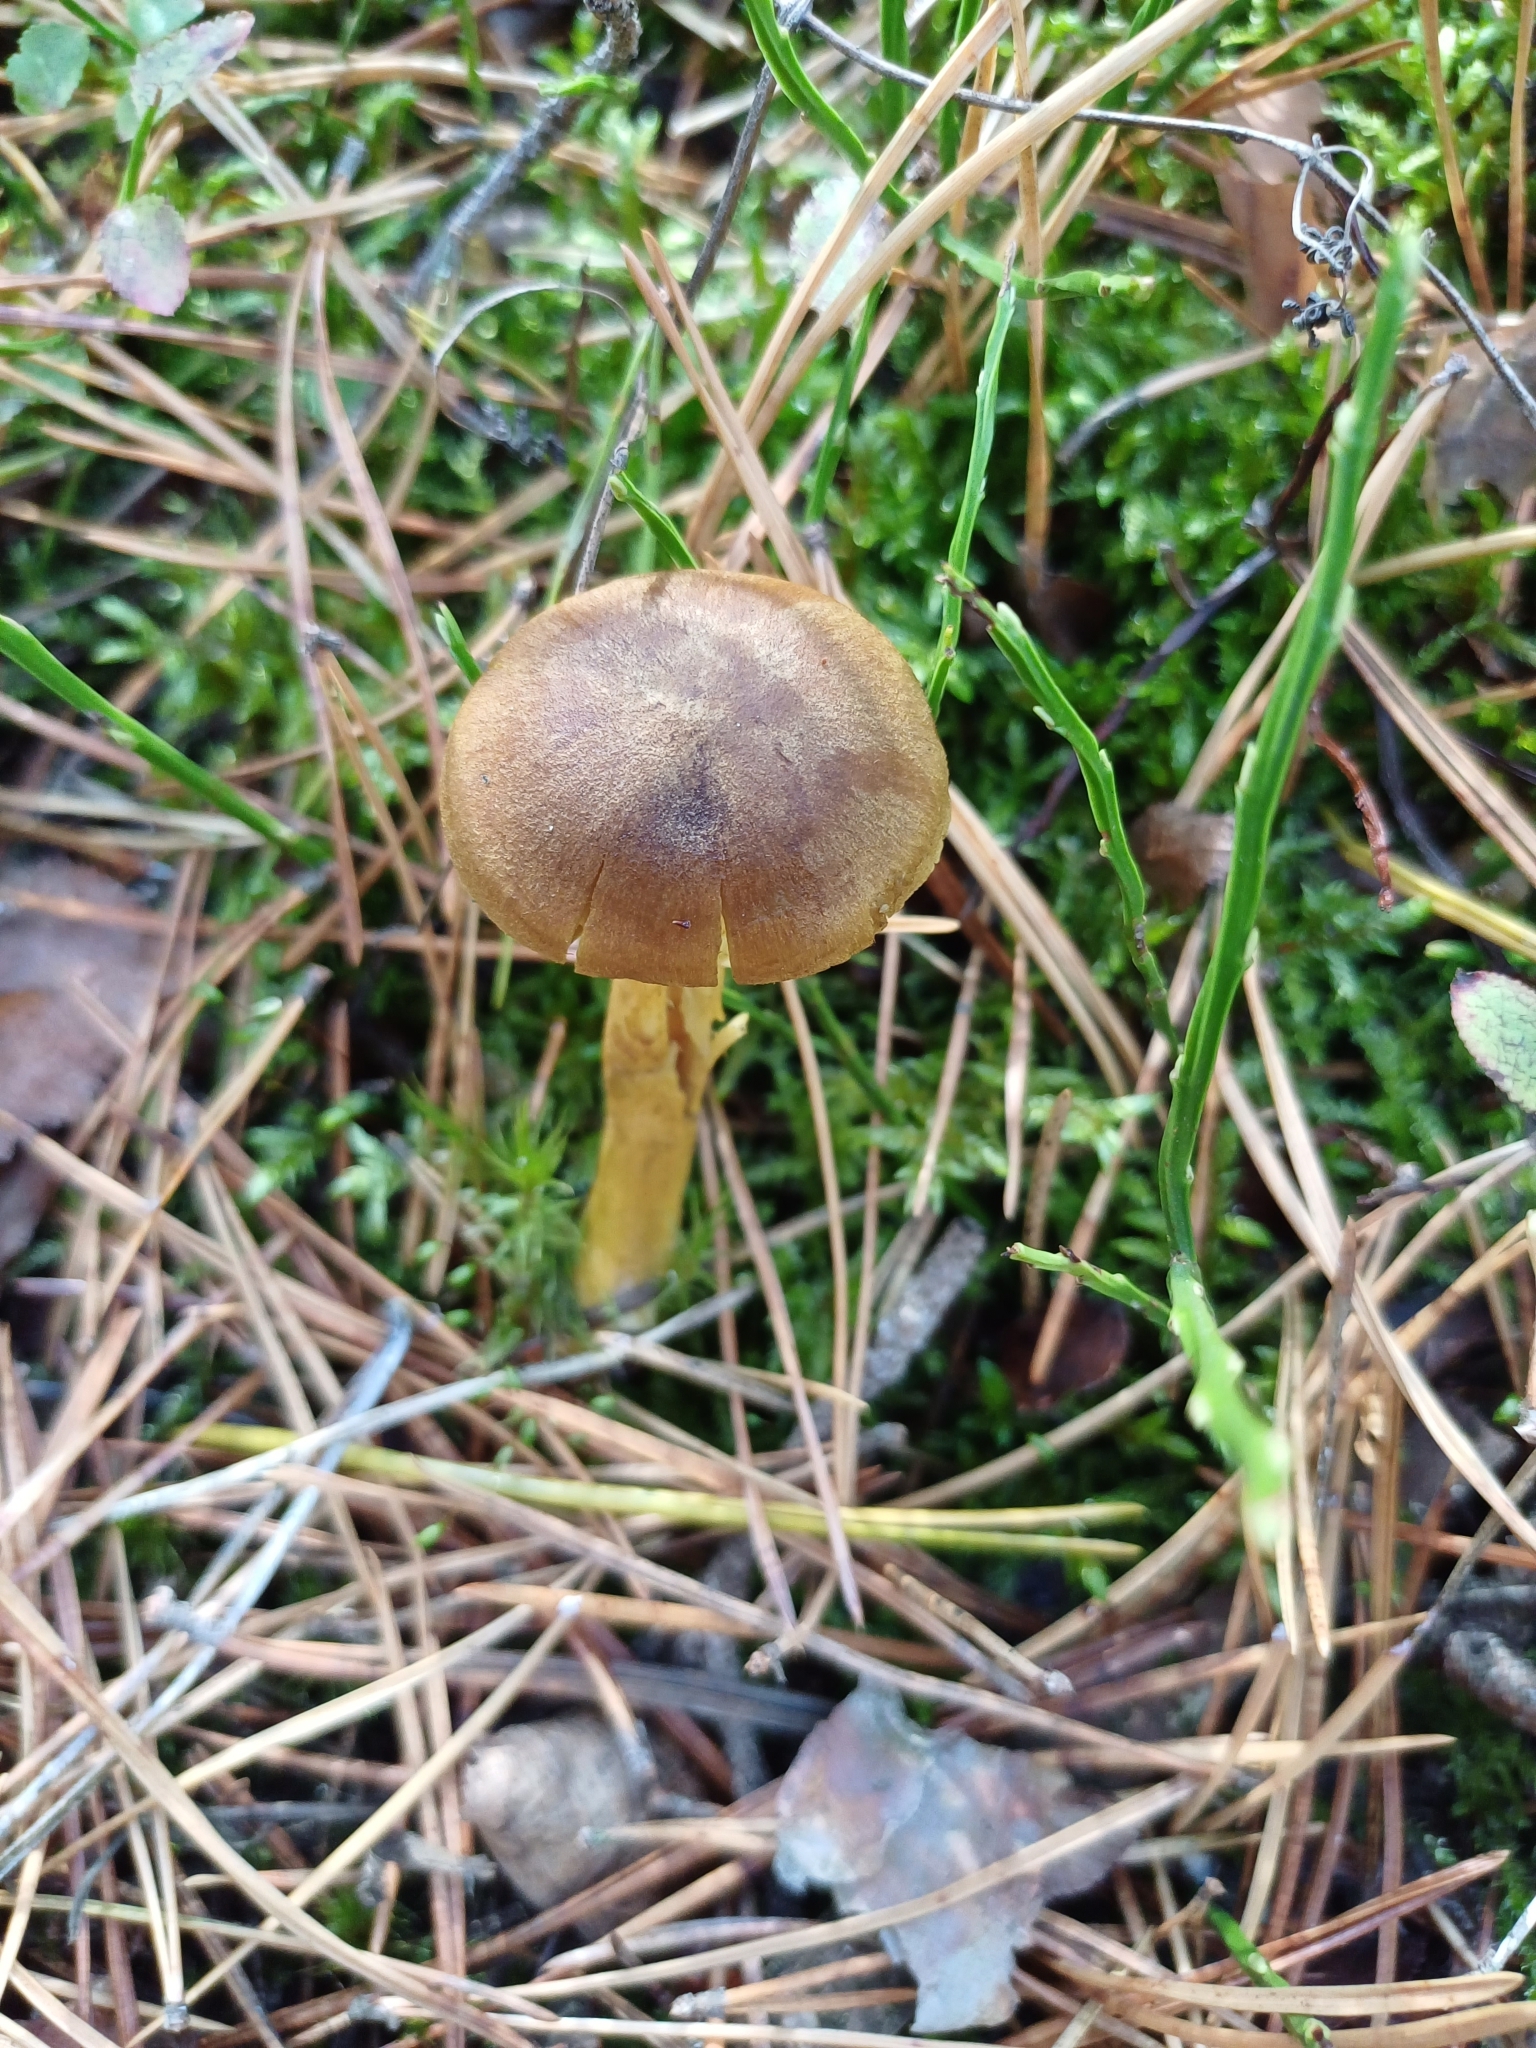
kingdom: Fungi
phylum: Basidiomycota
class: Agaricomycetes
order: Agaricales
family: Cortinariaceae
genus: Cortinarius
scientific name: Cortinarius croceus
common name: Saffron webcap
